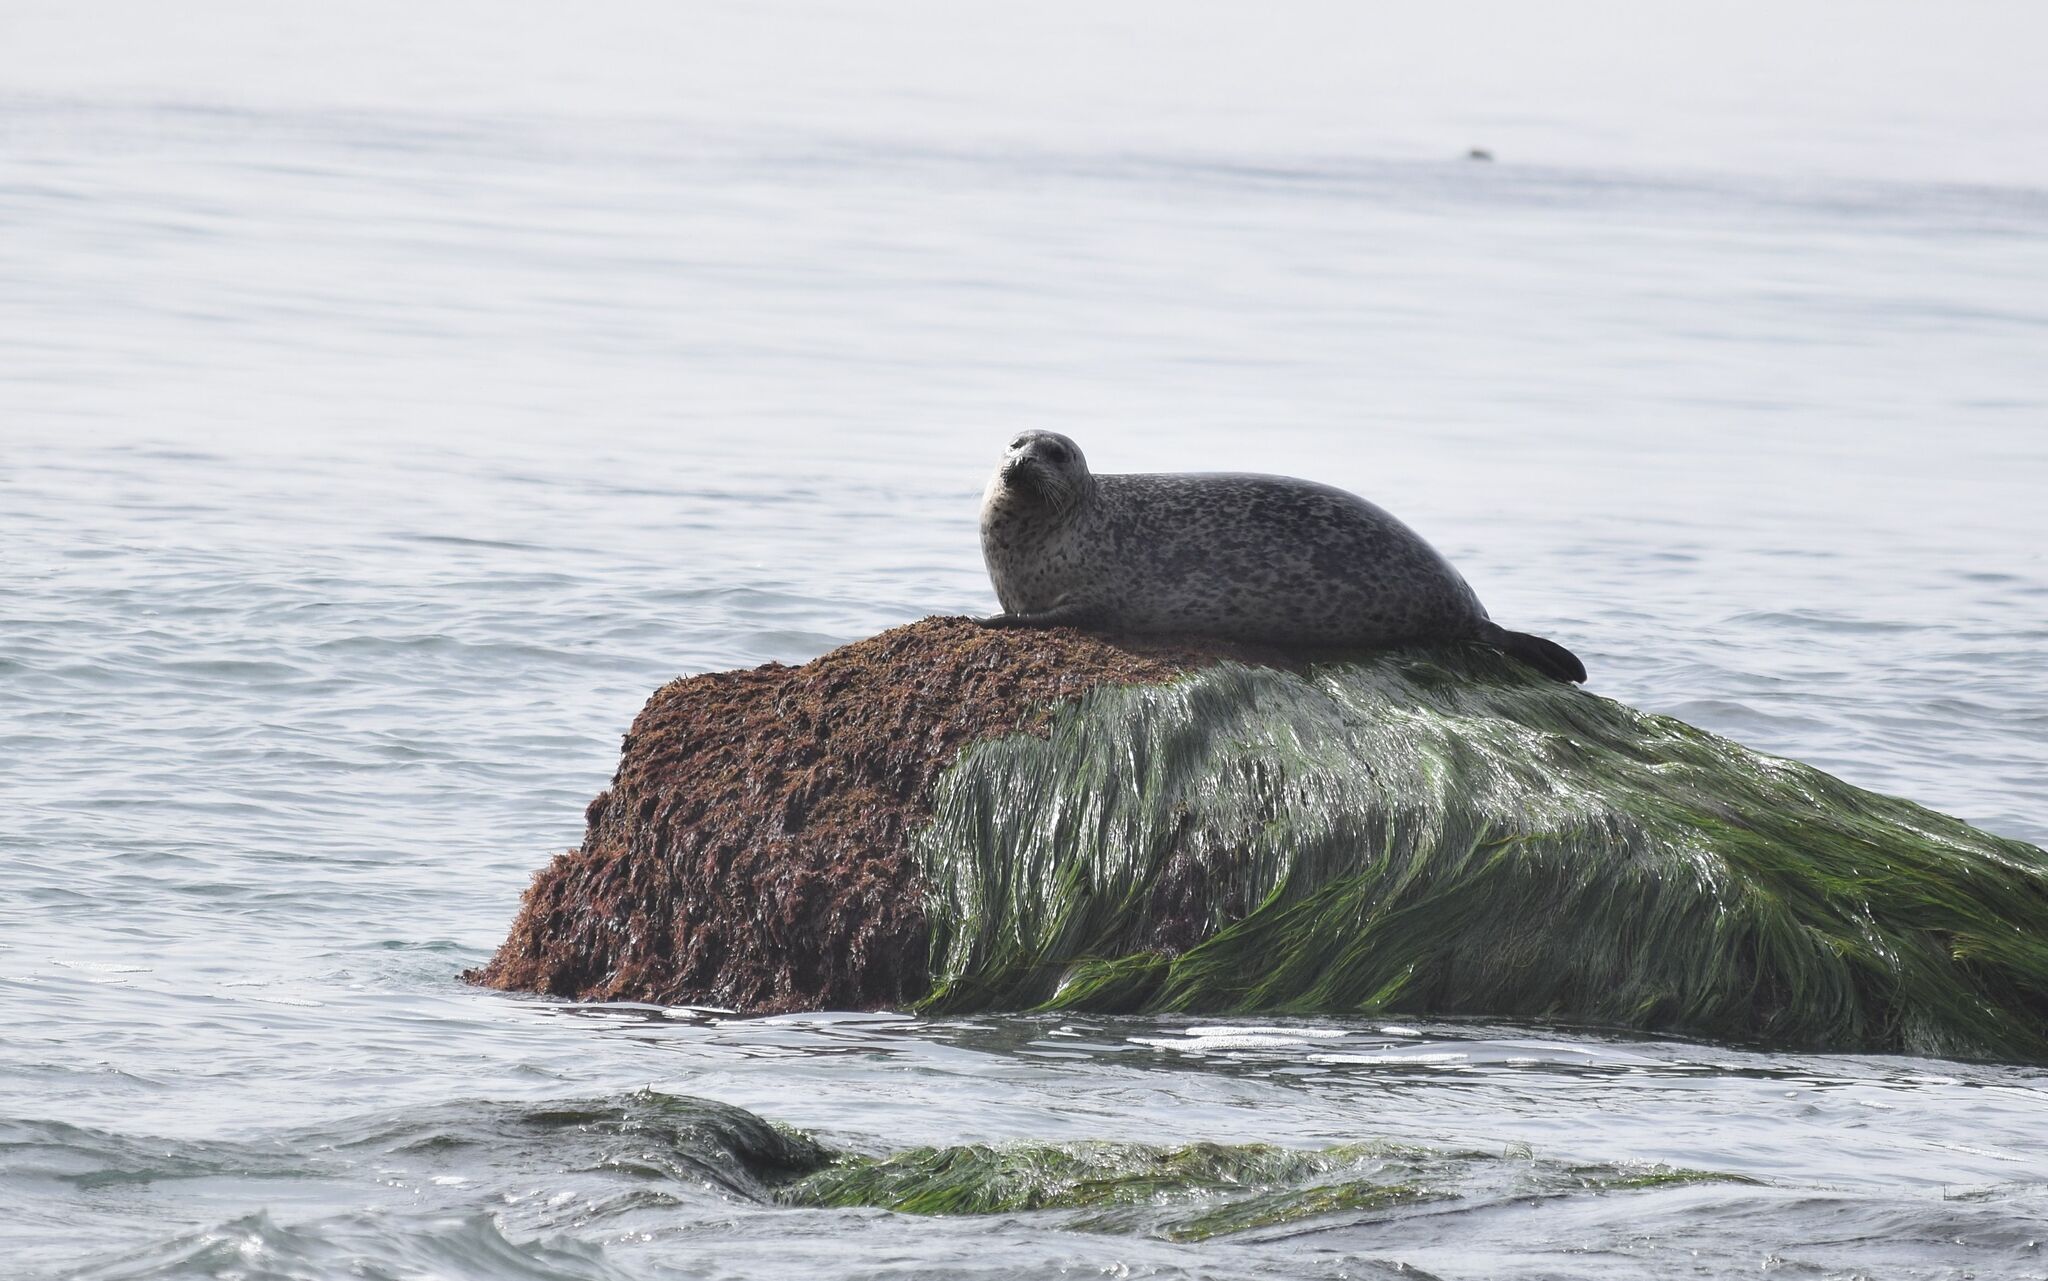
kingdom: Animalia
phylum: Chordata
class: Mammalia
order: Carnivora
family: Phocidae
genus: Phoca
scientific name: Phoca vitulina
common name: Harbor seal
